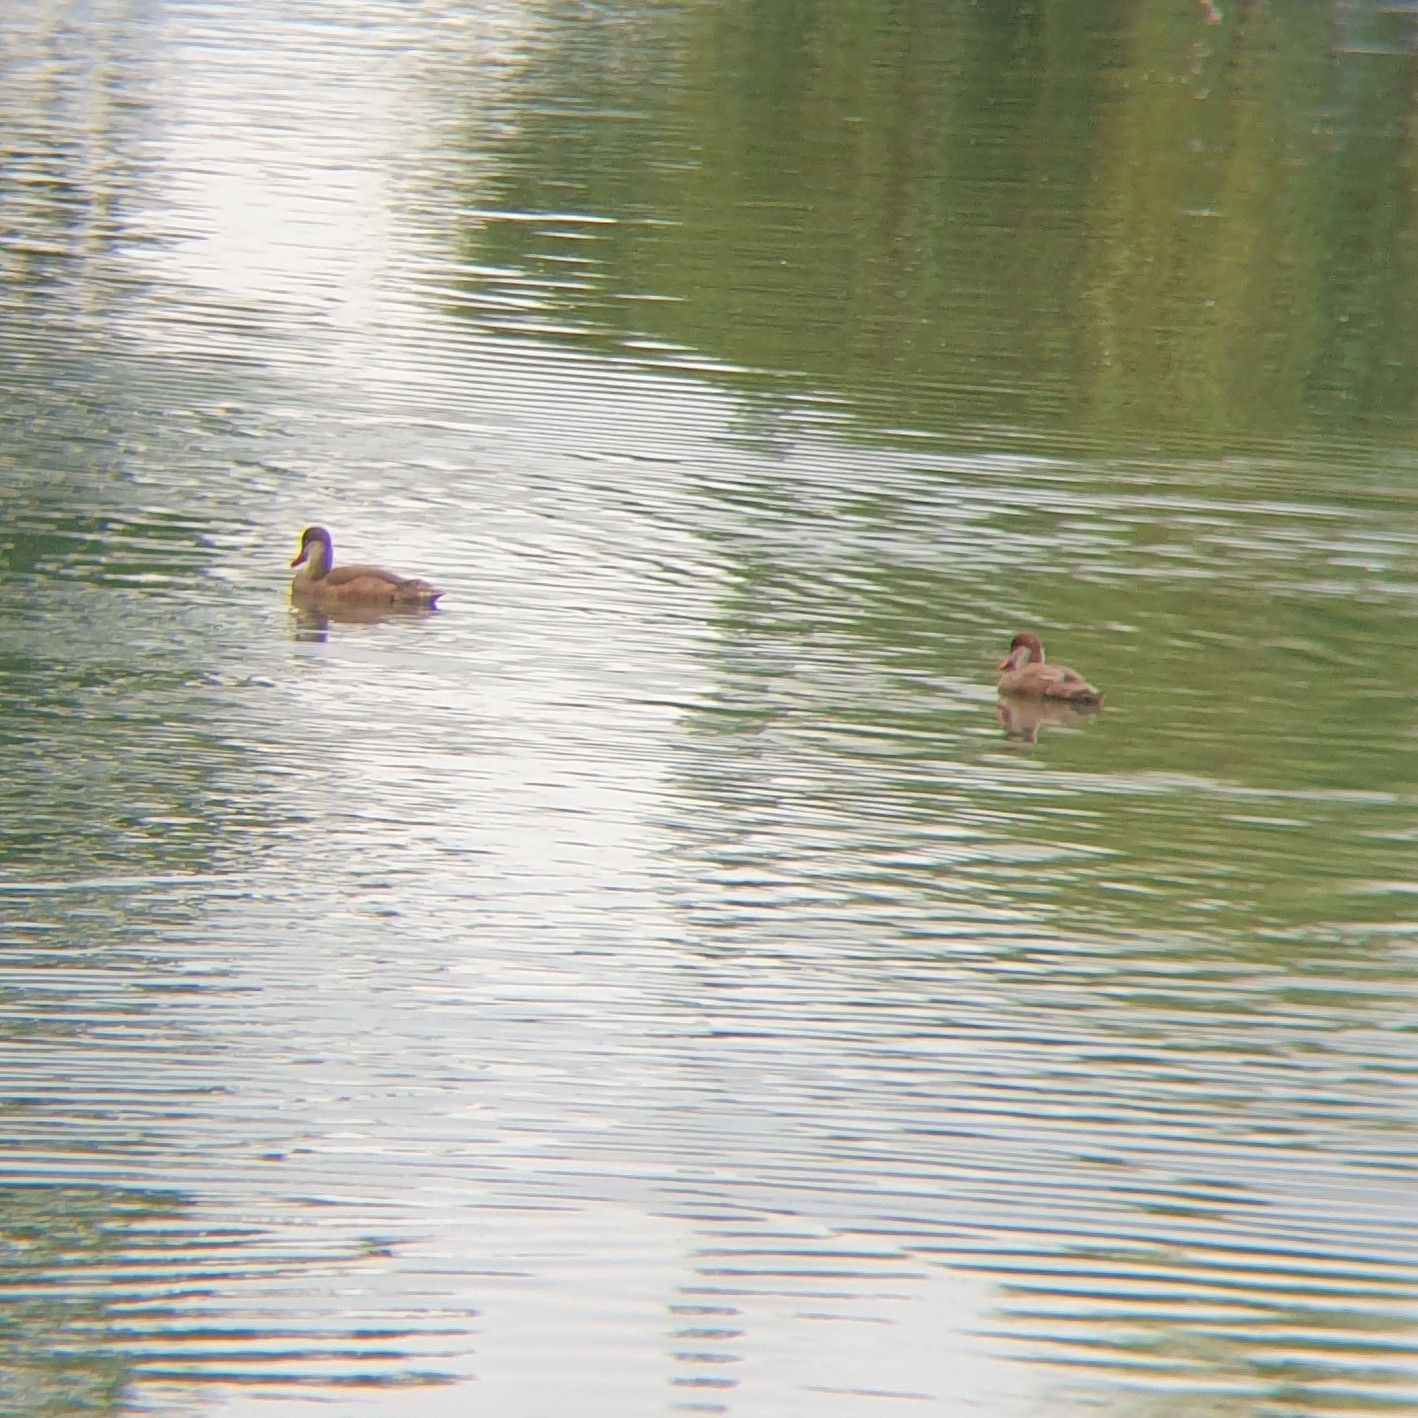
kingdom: Animalia
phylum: Chordata
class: Aves
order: Anseriformes
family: Anatidae
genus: Netta
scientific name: Netta rufina
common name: Red-crested pochard
